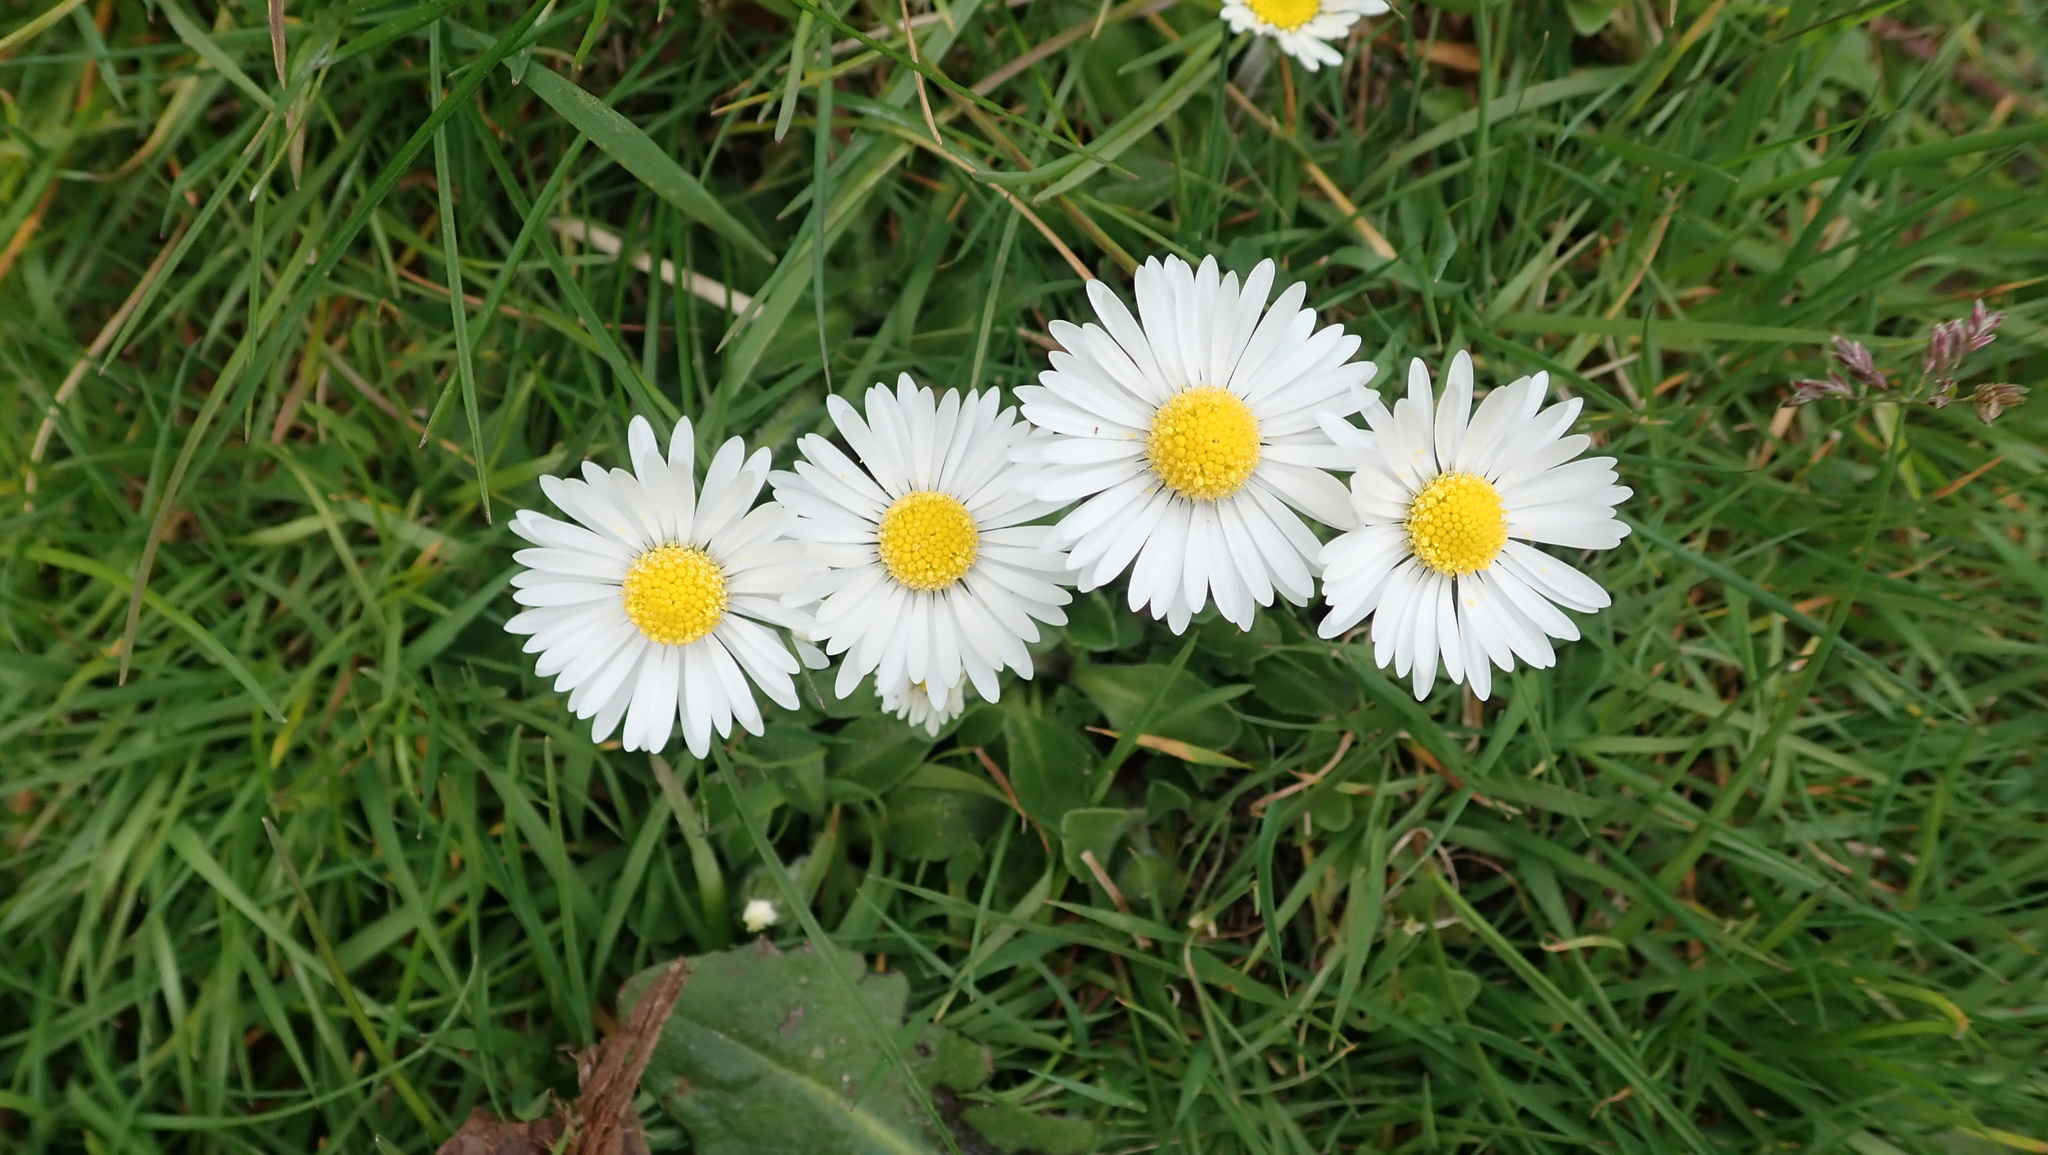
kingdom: Plantae
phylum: Tracheophyta
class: Magnoliopsida
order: Asterales
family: Asteraceae
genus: Bellis
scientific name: Bellis perennis
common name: Lawndaisy
